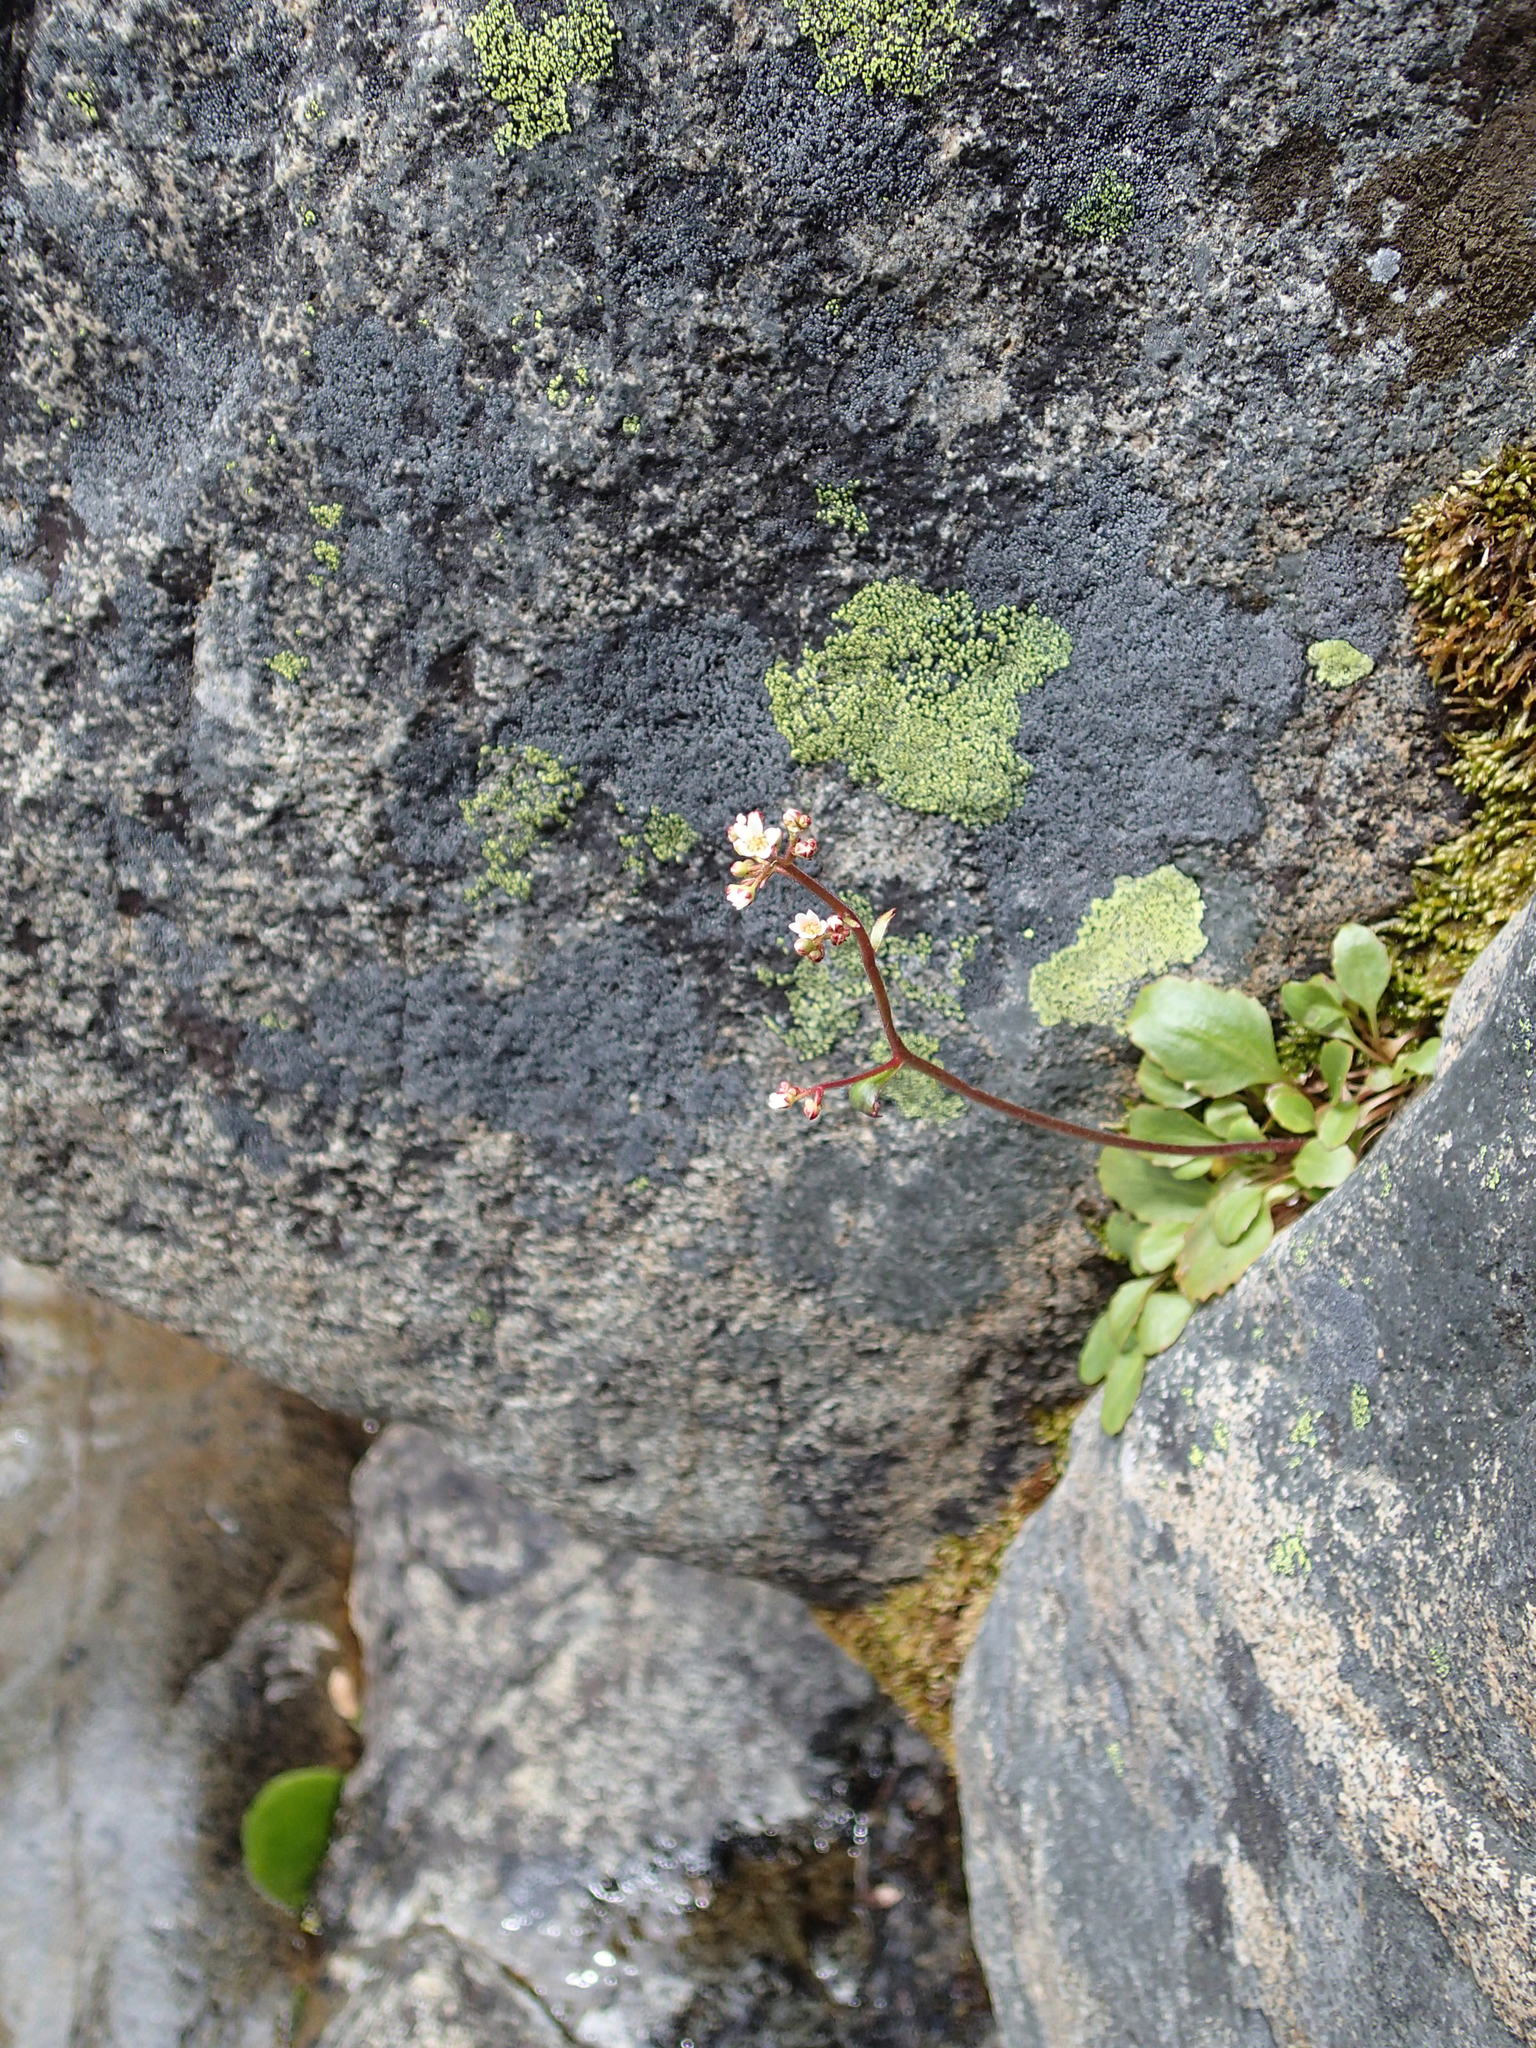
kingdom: Plantae
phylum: Tracheophyta
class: Magnoliopsida
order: Saxifragales
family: Saxifragaceae
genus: Micranthes
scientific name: Micranthes californica
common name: California saxifrage
